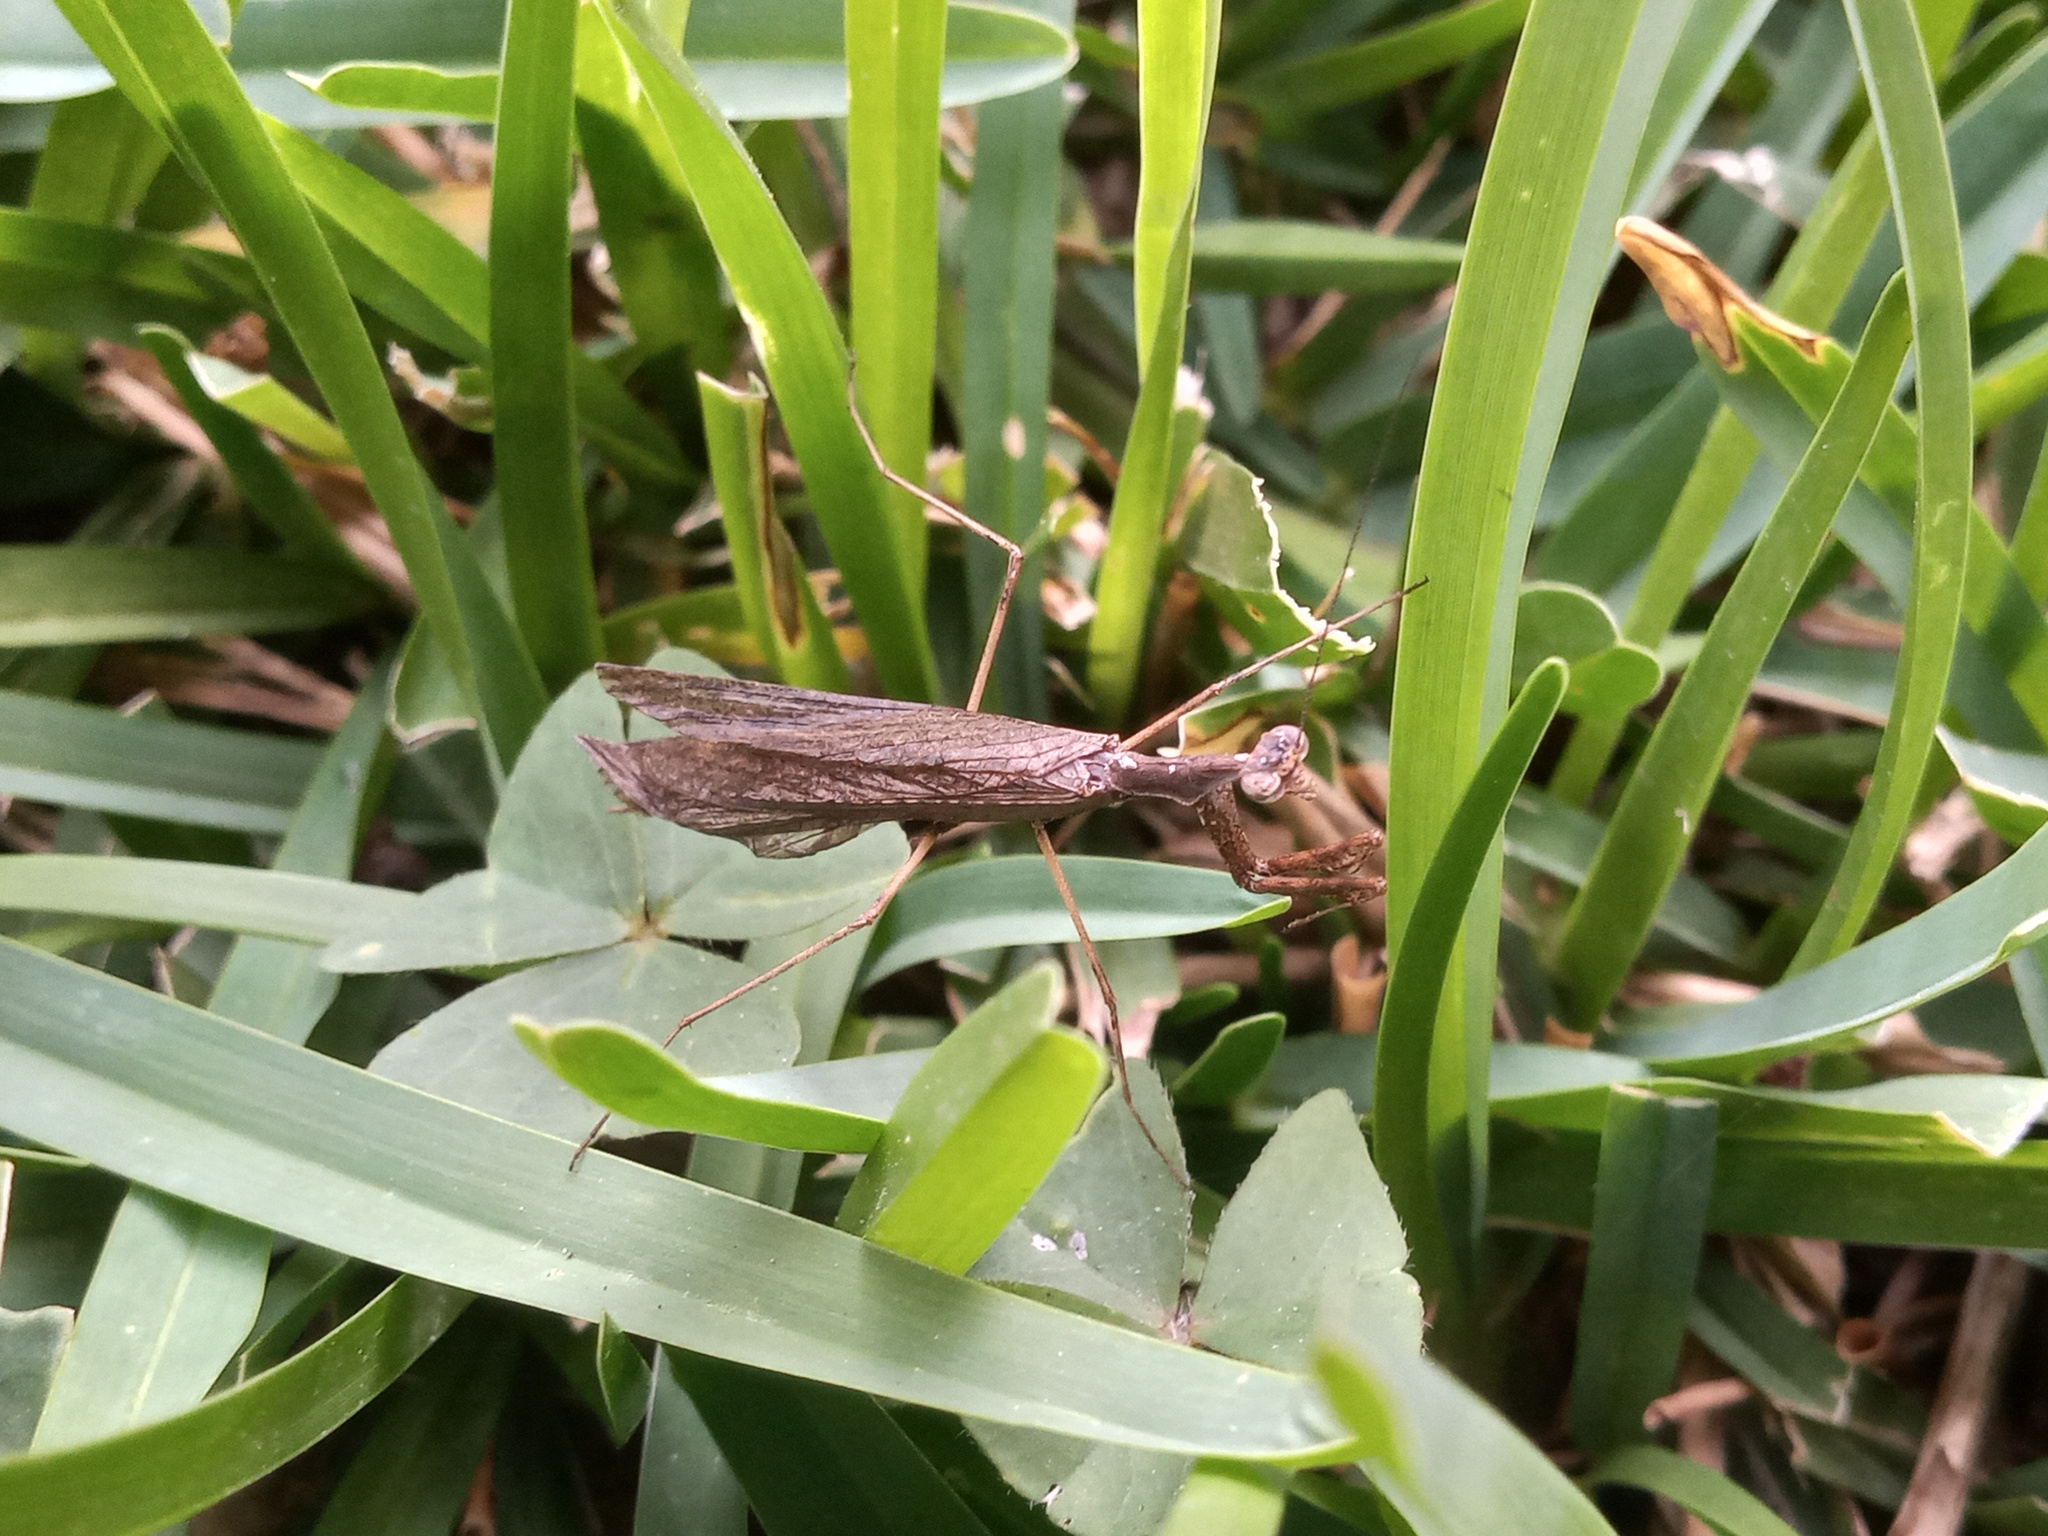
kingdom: Animalia
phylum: Arthropoda
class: Insecta
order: Mantodea
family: Thespidae
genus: Oligonicella
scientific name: Oligonicella scudderi
